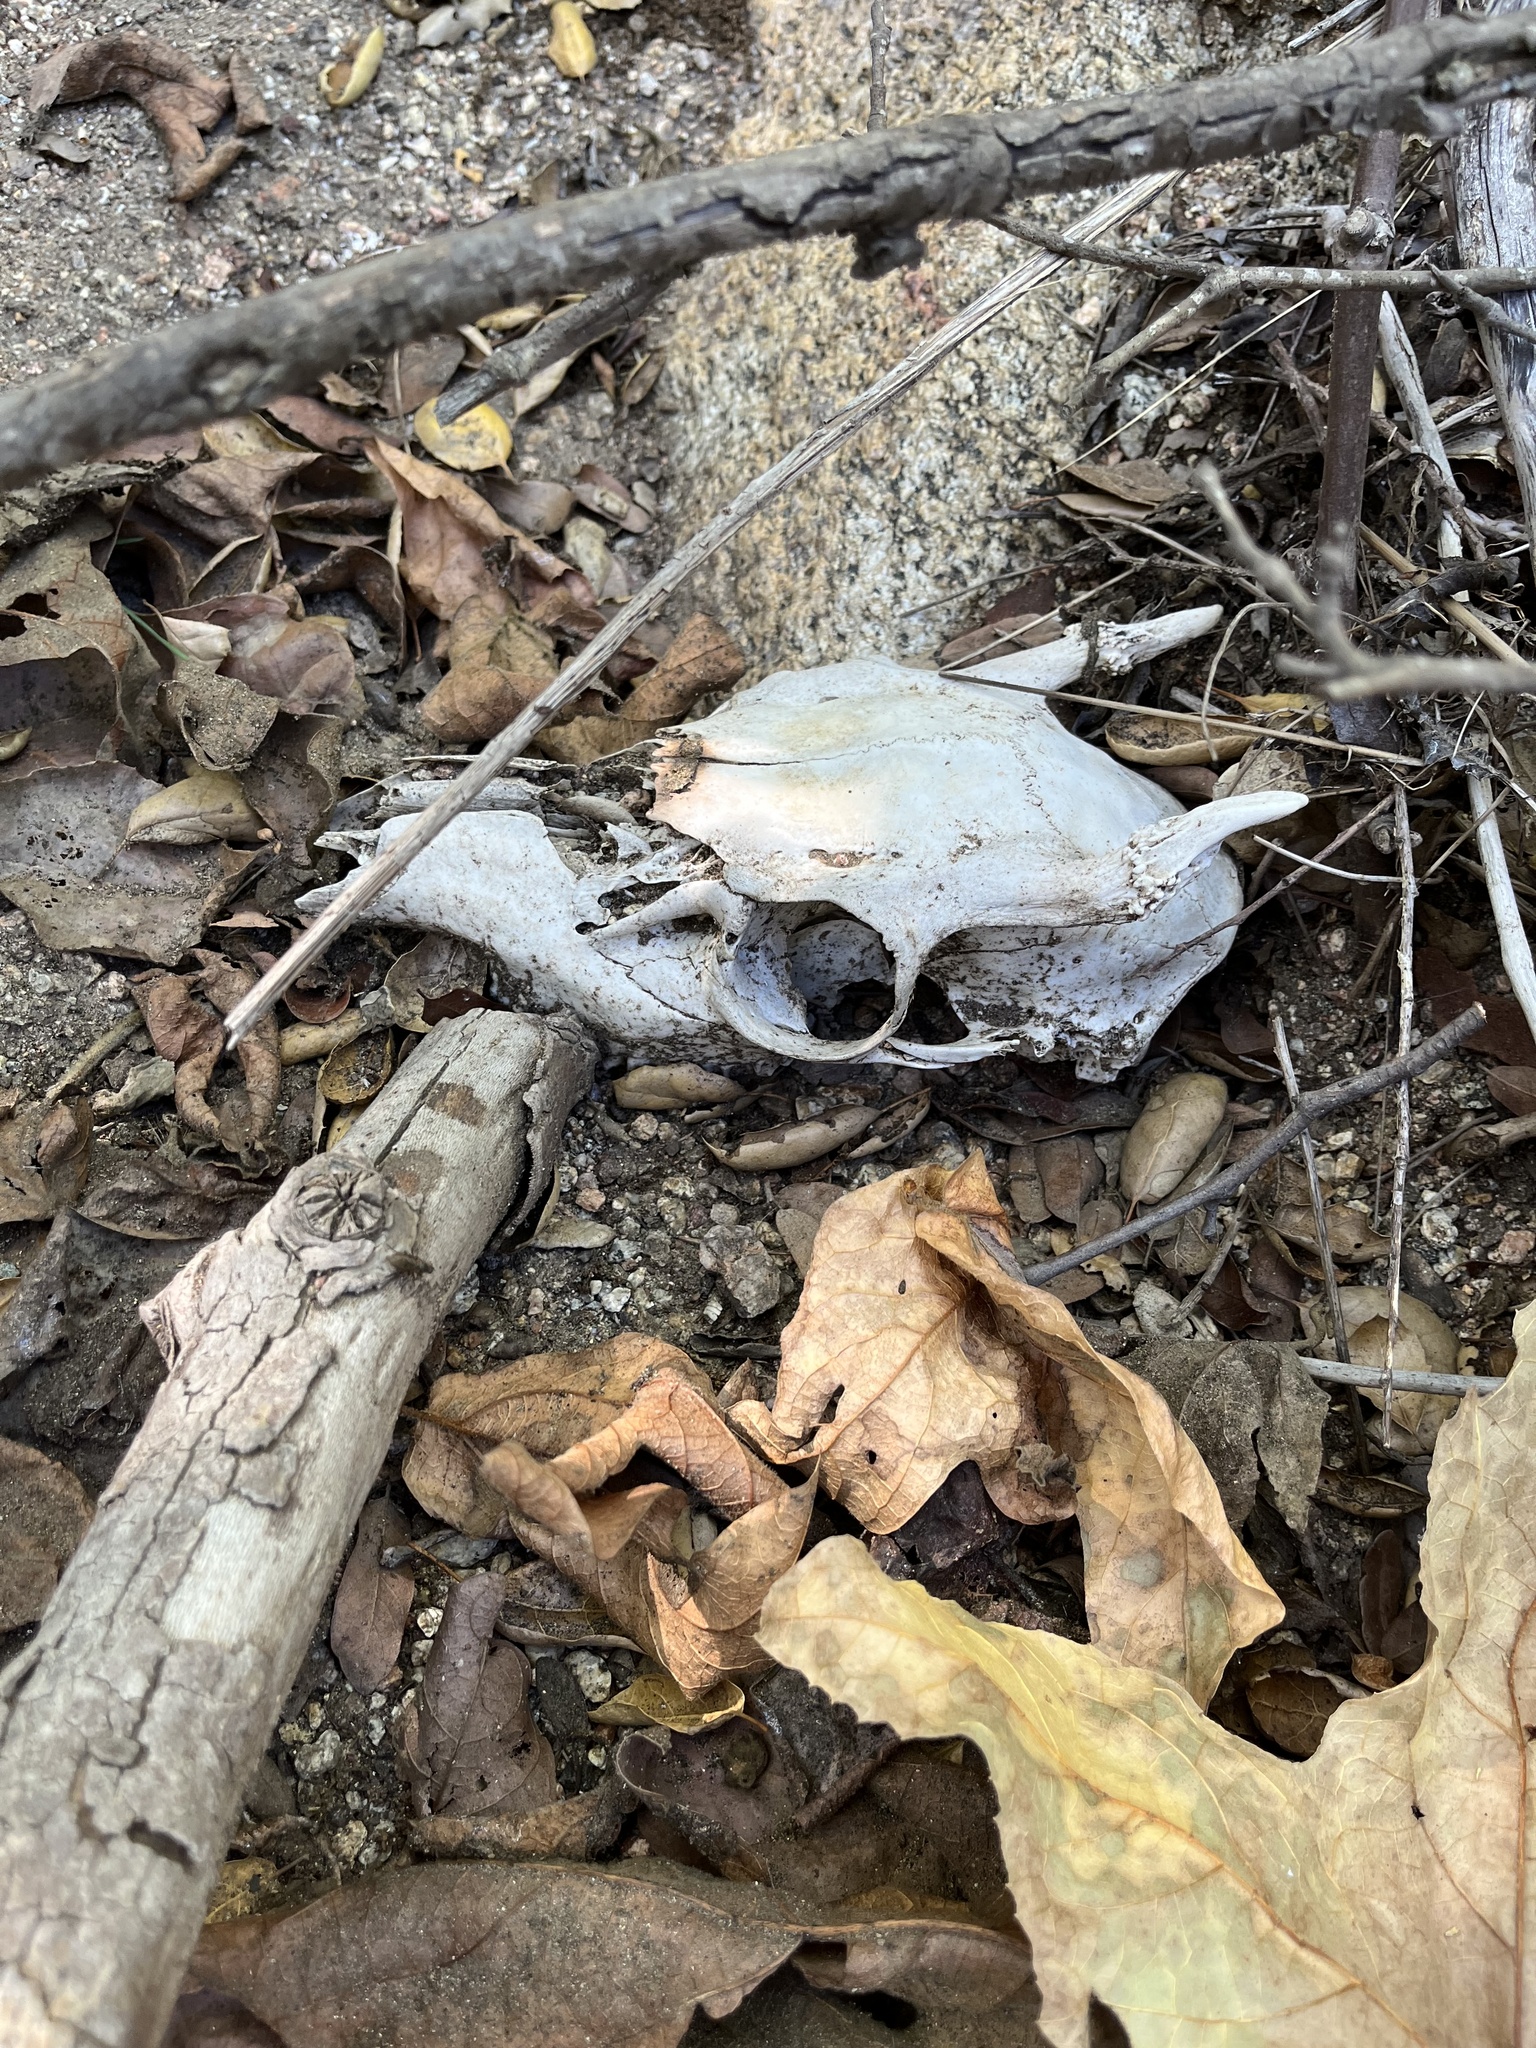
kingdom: Animalia
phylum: Chordata
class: Mammalia
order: Artiodactyla
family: Cervidae
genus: Odocoileus
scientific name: Odocoileus hemionus
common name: Mule deer
